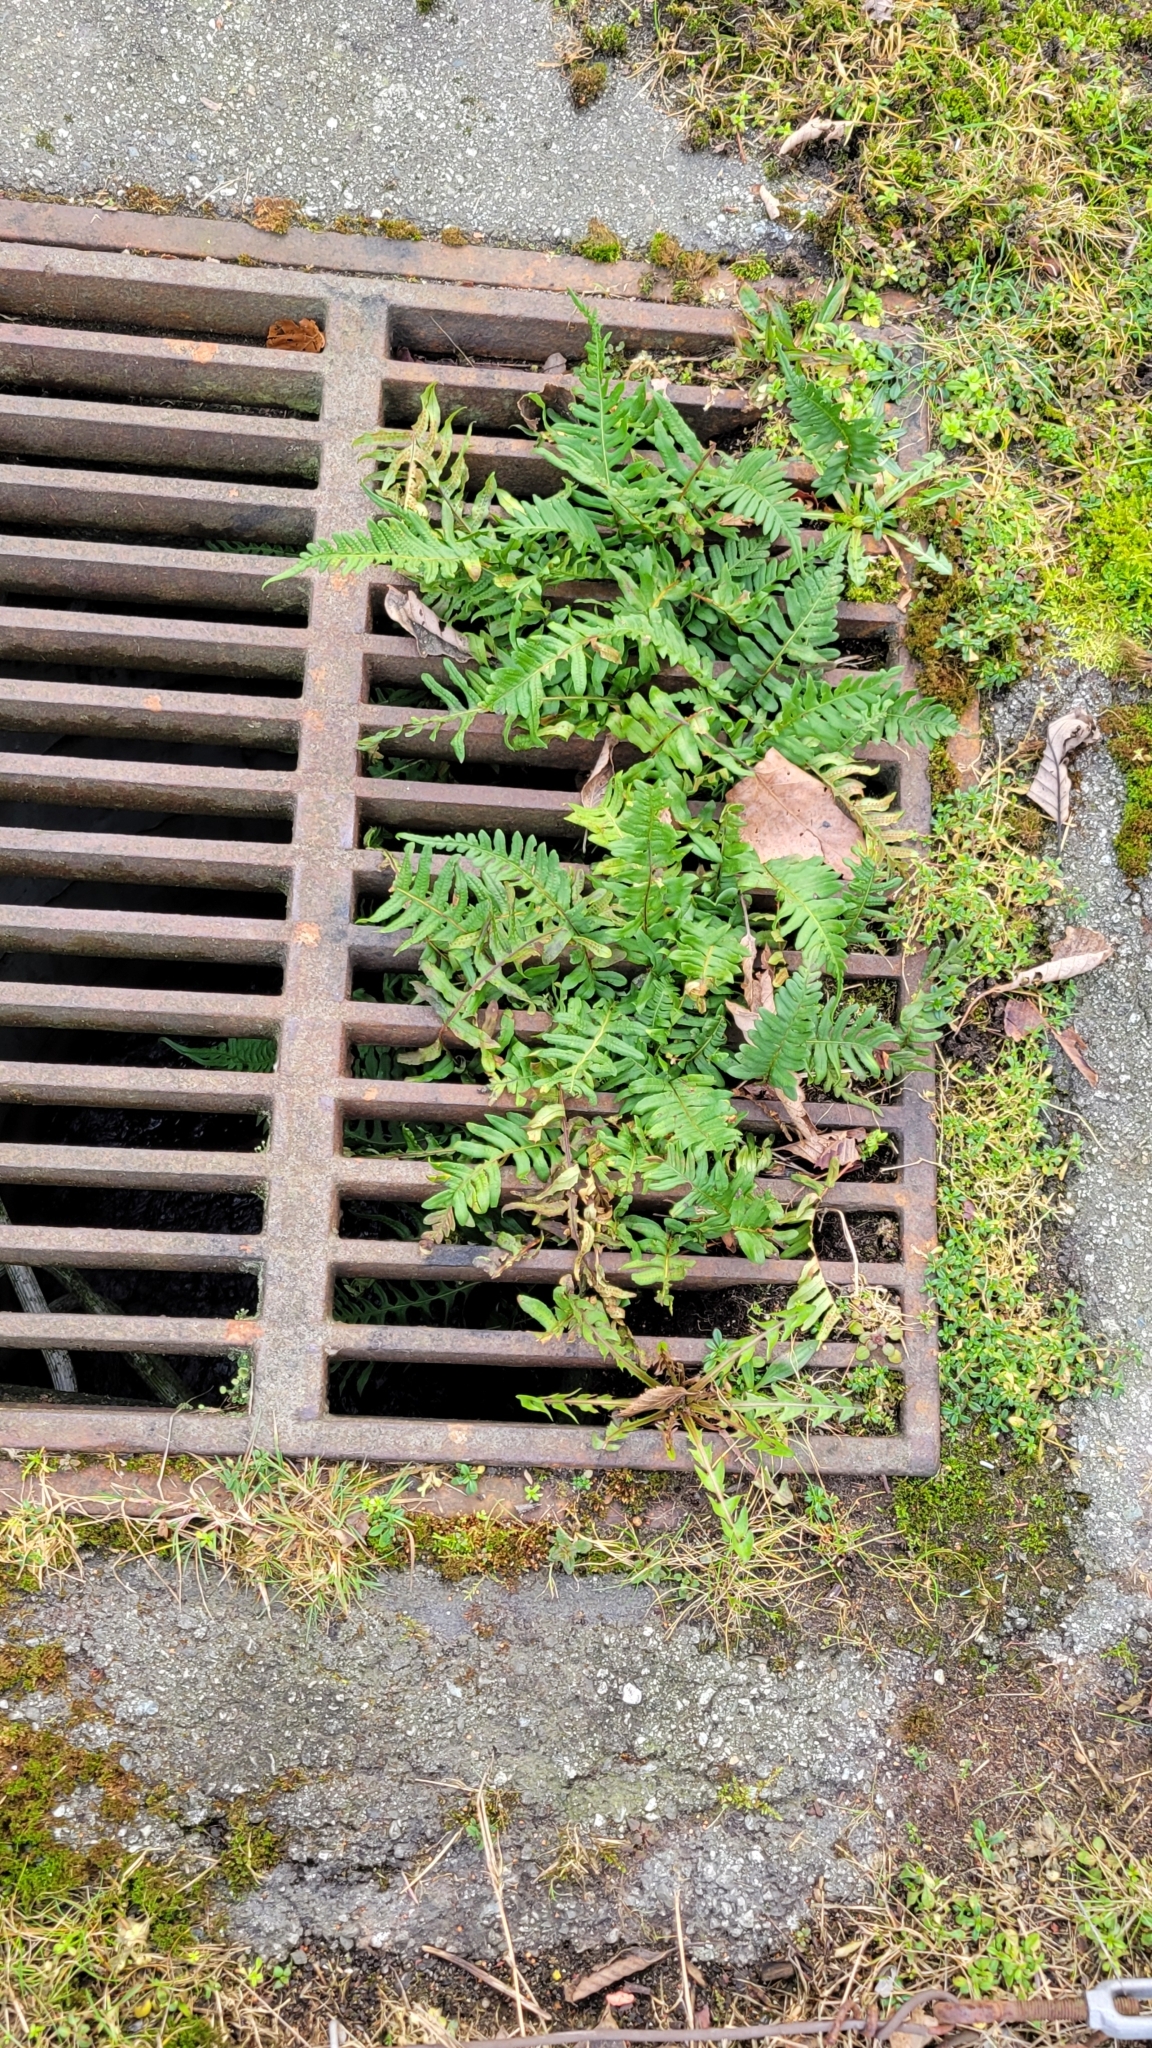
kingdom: Plantae
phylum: Tracheophyta
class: Polypodiopsida
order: Polypodiales
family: Polypodiaceae
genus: Polypodium
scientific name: Polypodium glycyrrhiza
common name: Licorice fern
